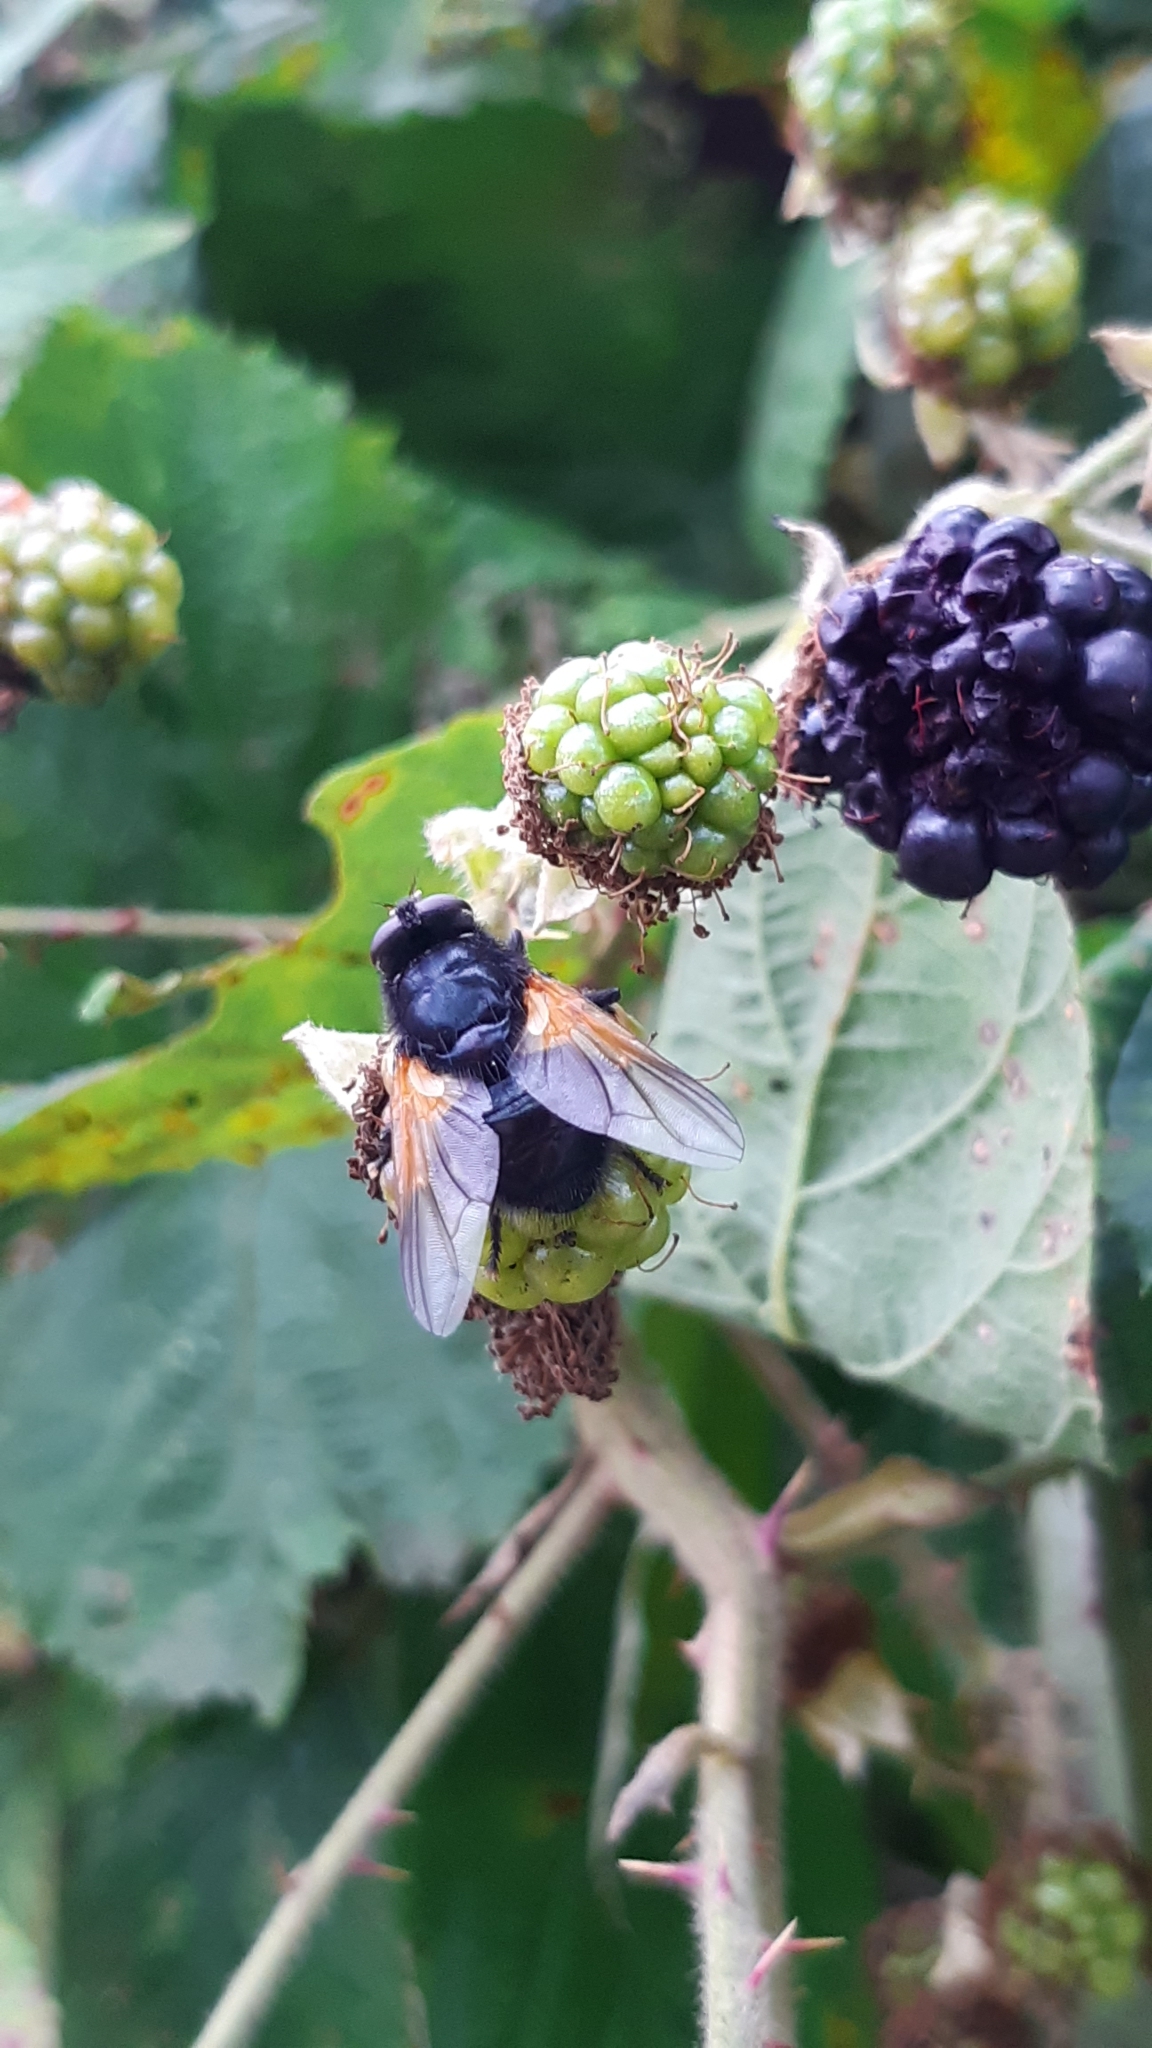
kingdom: Animalia
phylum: Arthropoda
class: Insecta
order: Diptera
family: Muscidae
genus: Mesembrina
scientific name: Mesembrina meridiana
